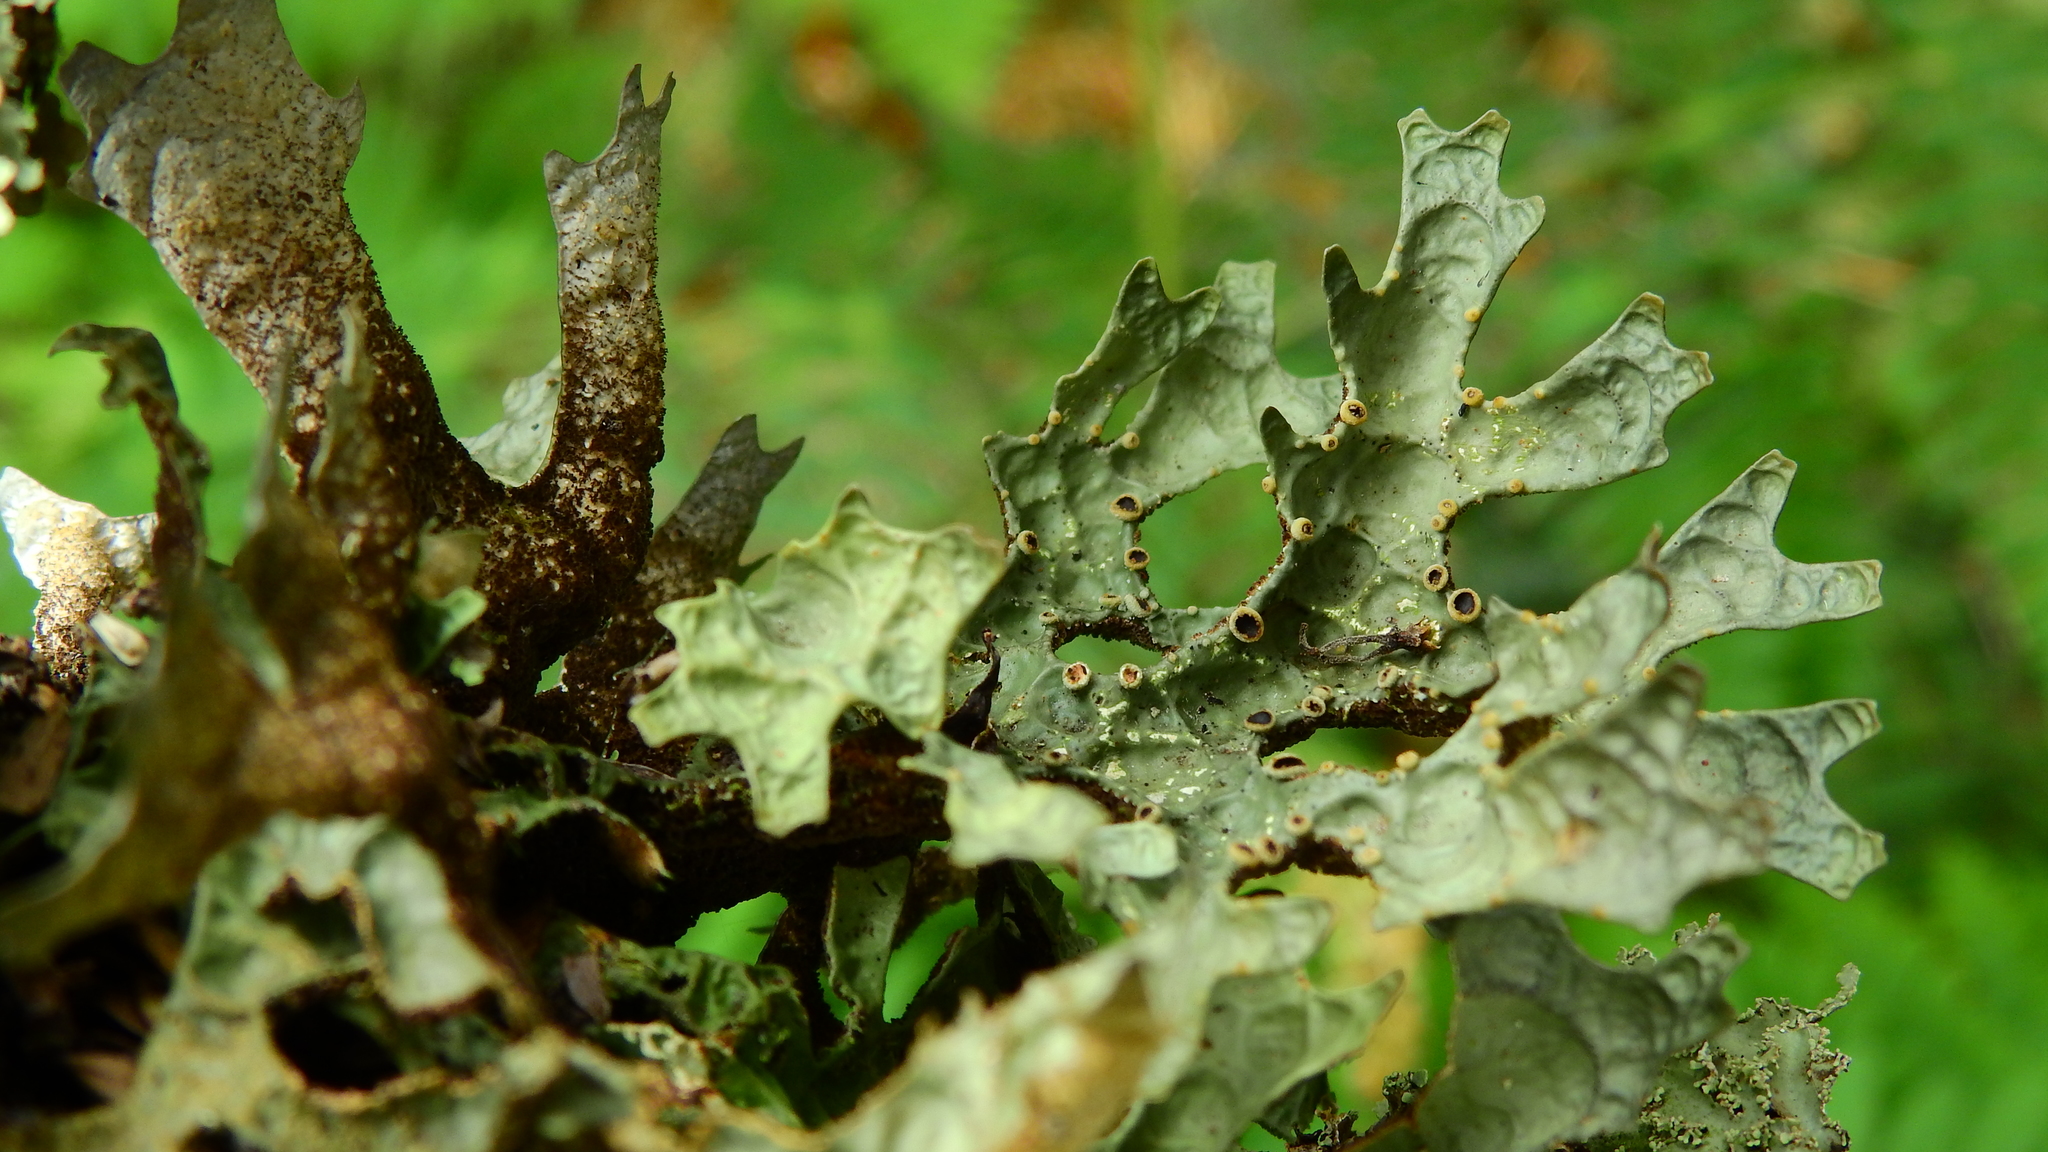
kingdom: Fungi
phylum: Ascomycota
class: Lecanoromycetes
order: Peltigerales
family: Lobariaceae
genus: Pseudocyphellaria
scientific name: Pseudocyphellaria billardierei
